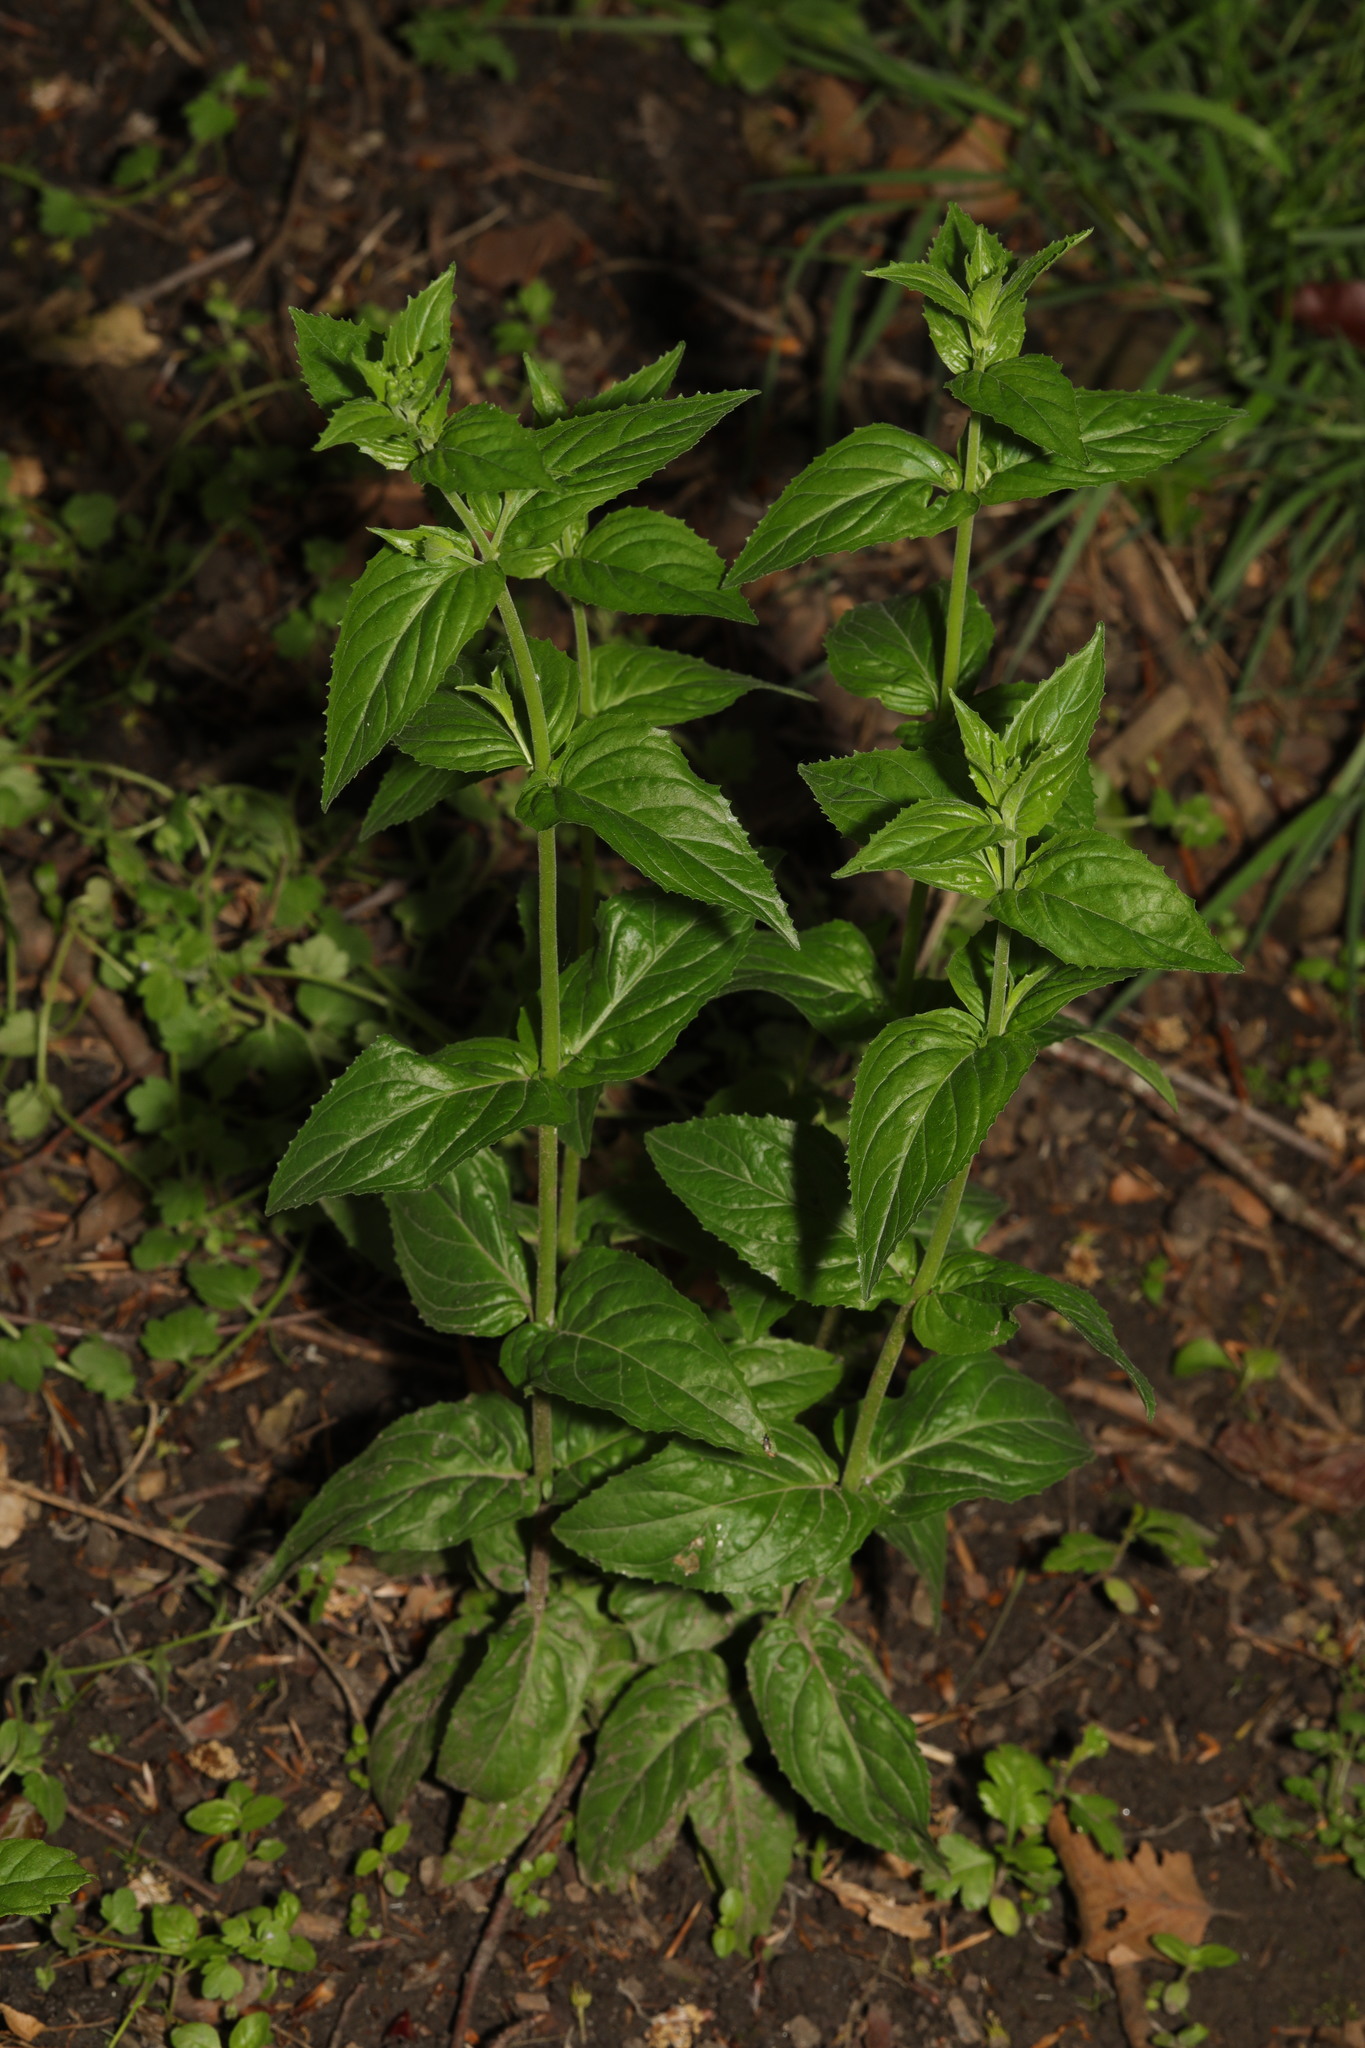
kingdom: Plantae
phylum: Tracheophyta
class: Magnoliopsida
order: Myrtales
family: Onagraceae
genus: Epilobium
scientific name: Epilobium montanum
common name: Broad-leaved willowherb
